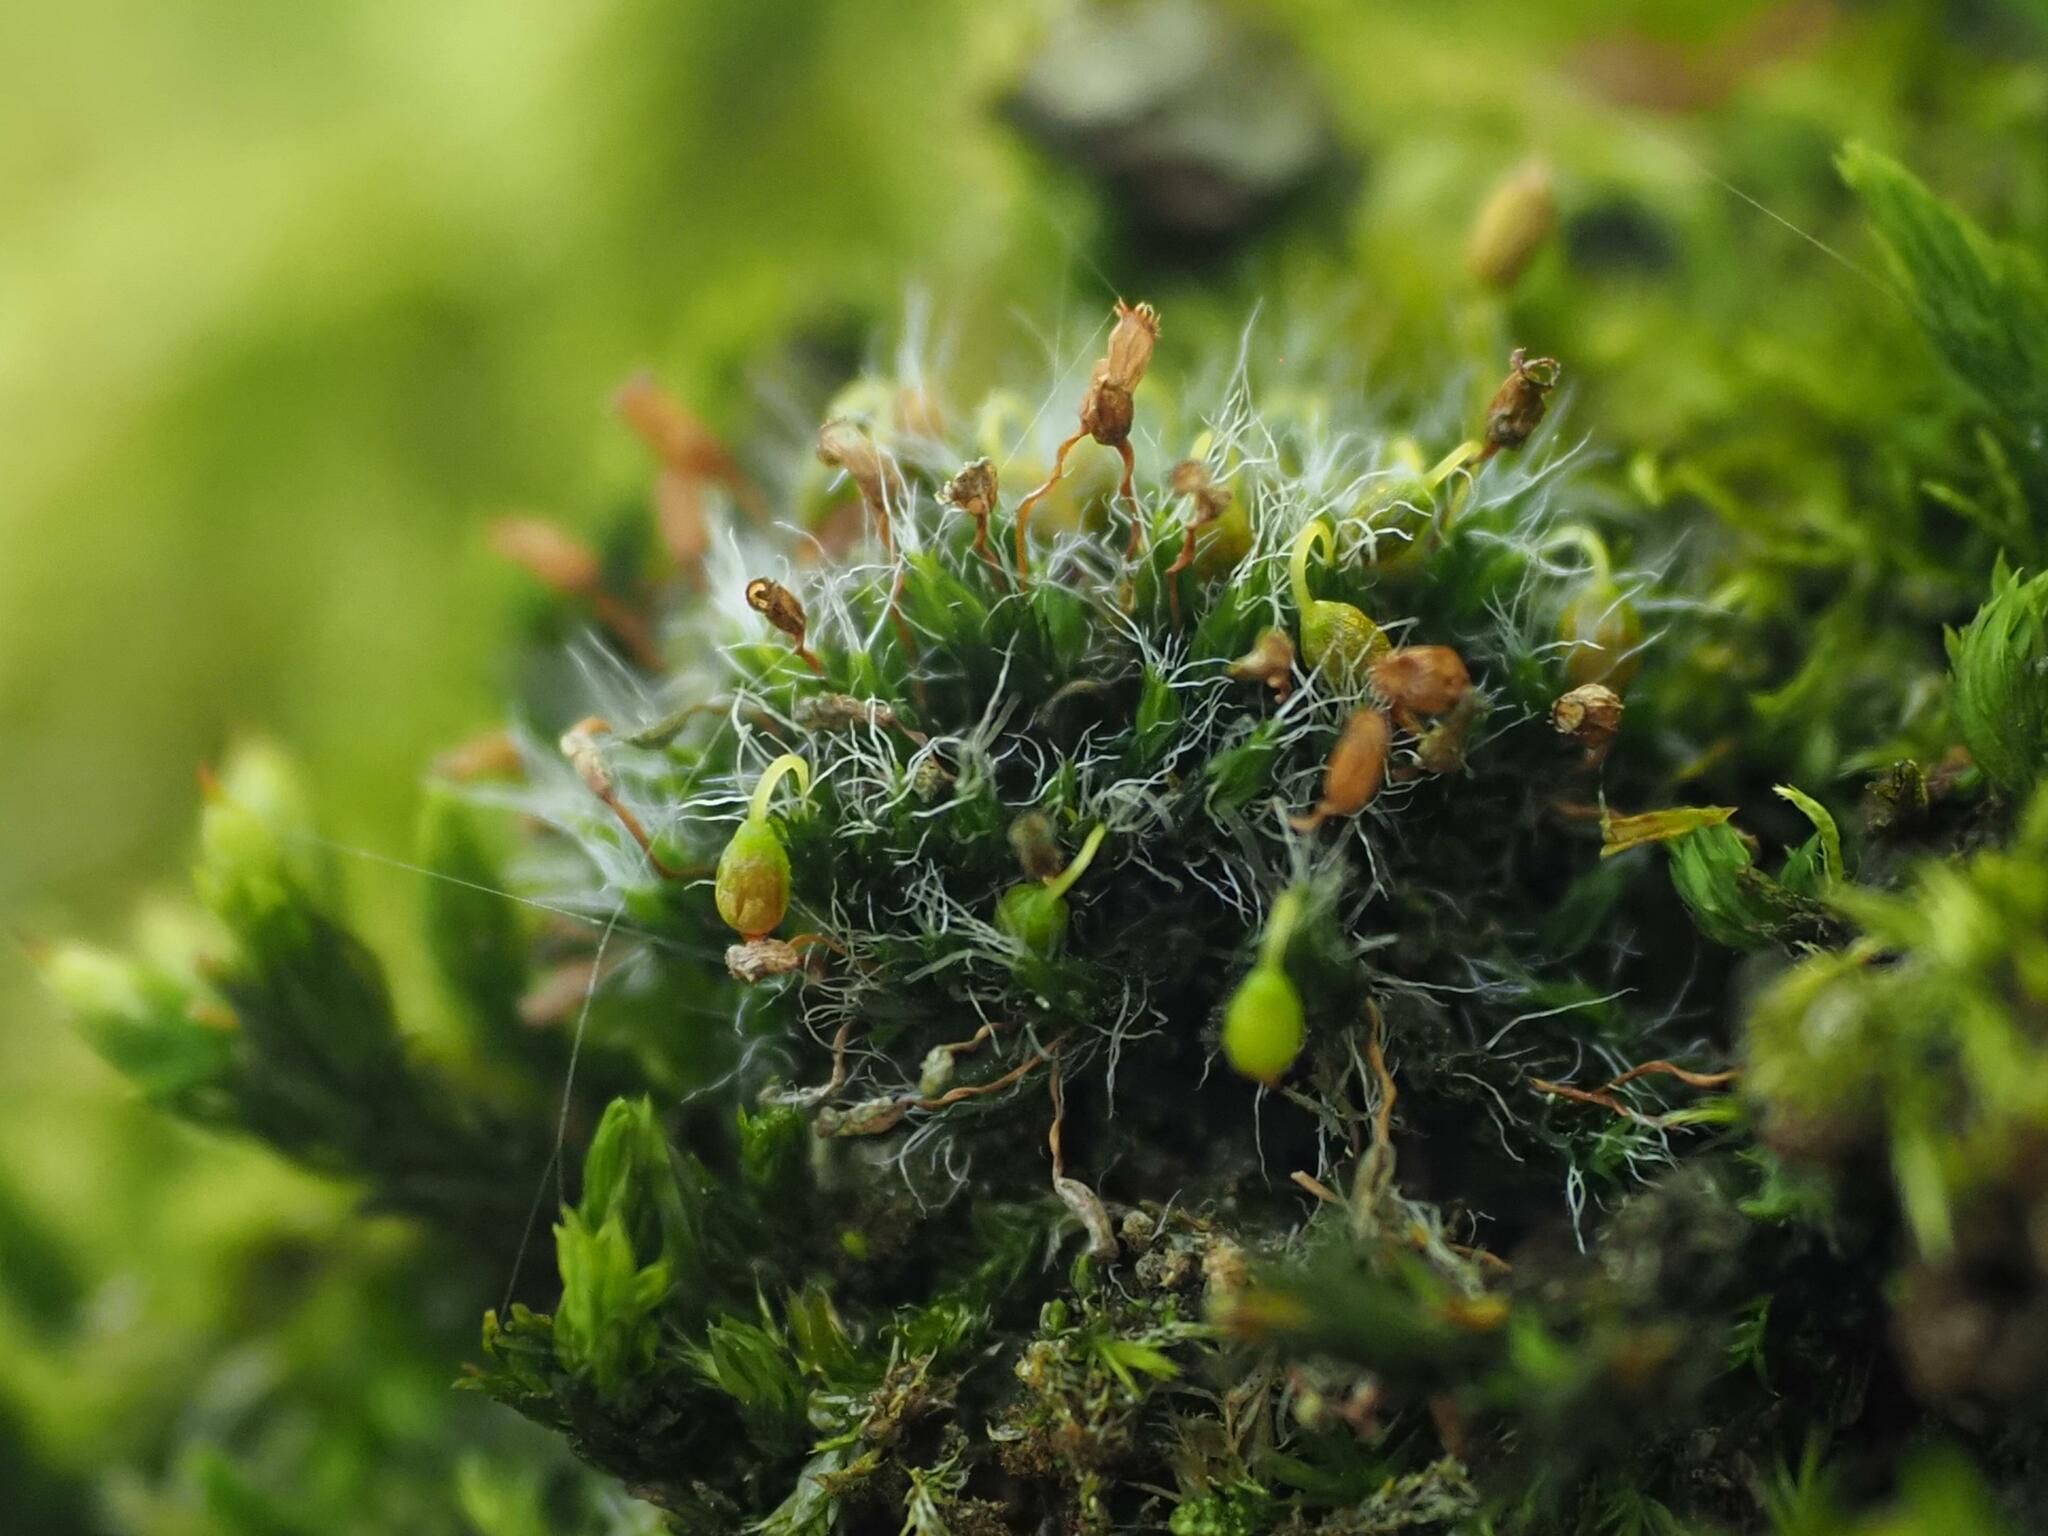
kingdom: Plantae
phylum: Bryophyta
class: Bryopsida
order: Grimmiales
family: Grimmiaceae
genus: Grimmia
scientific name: Grimmia pulvinata
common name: Grey-cushioned grimmia
